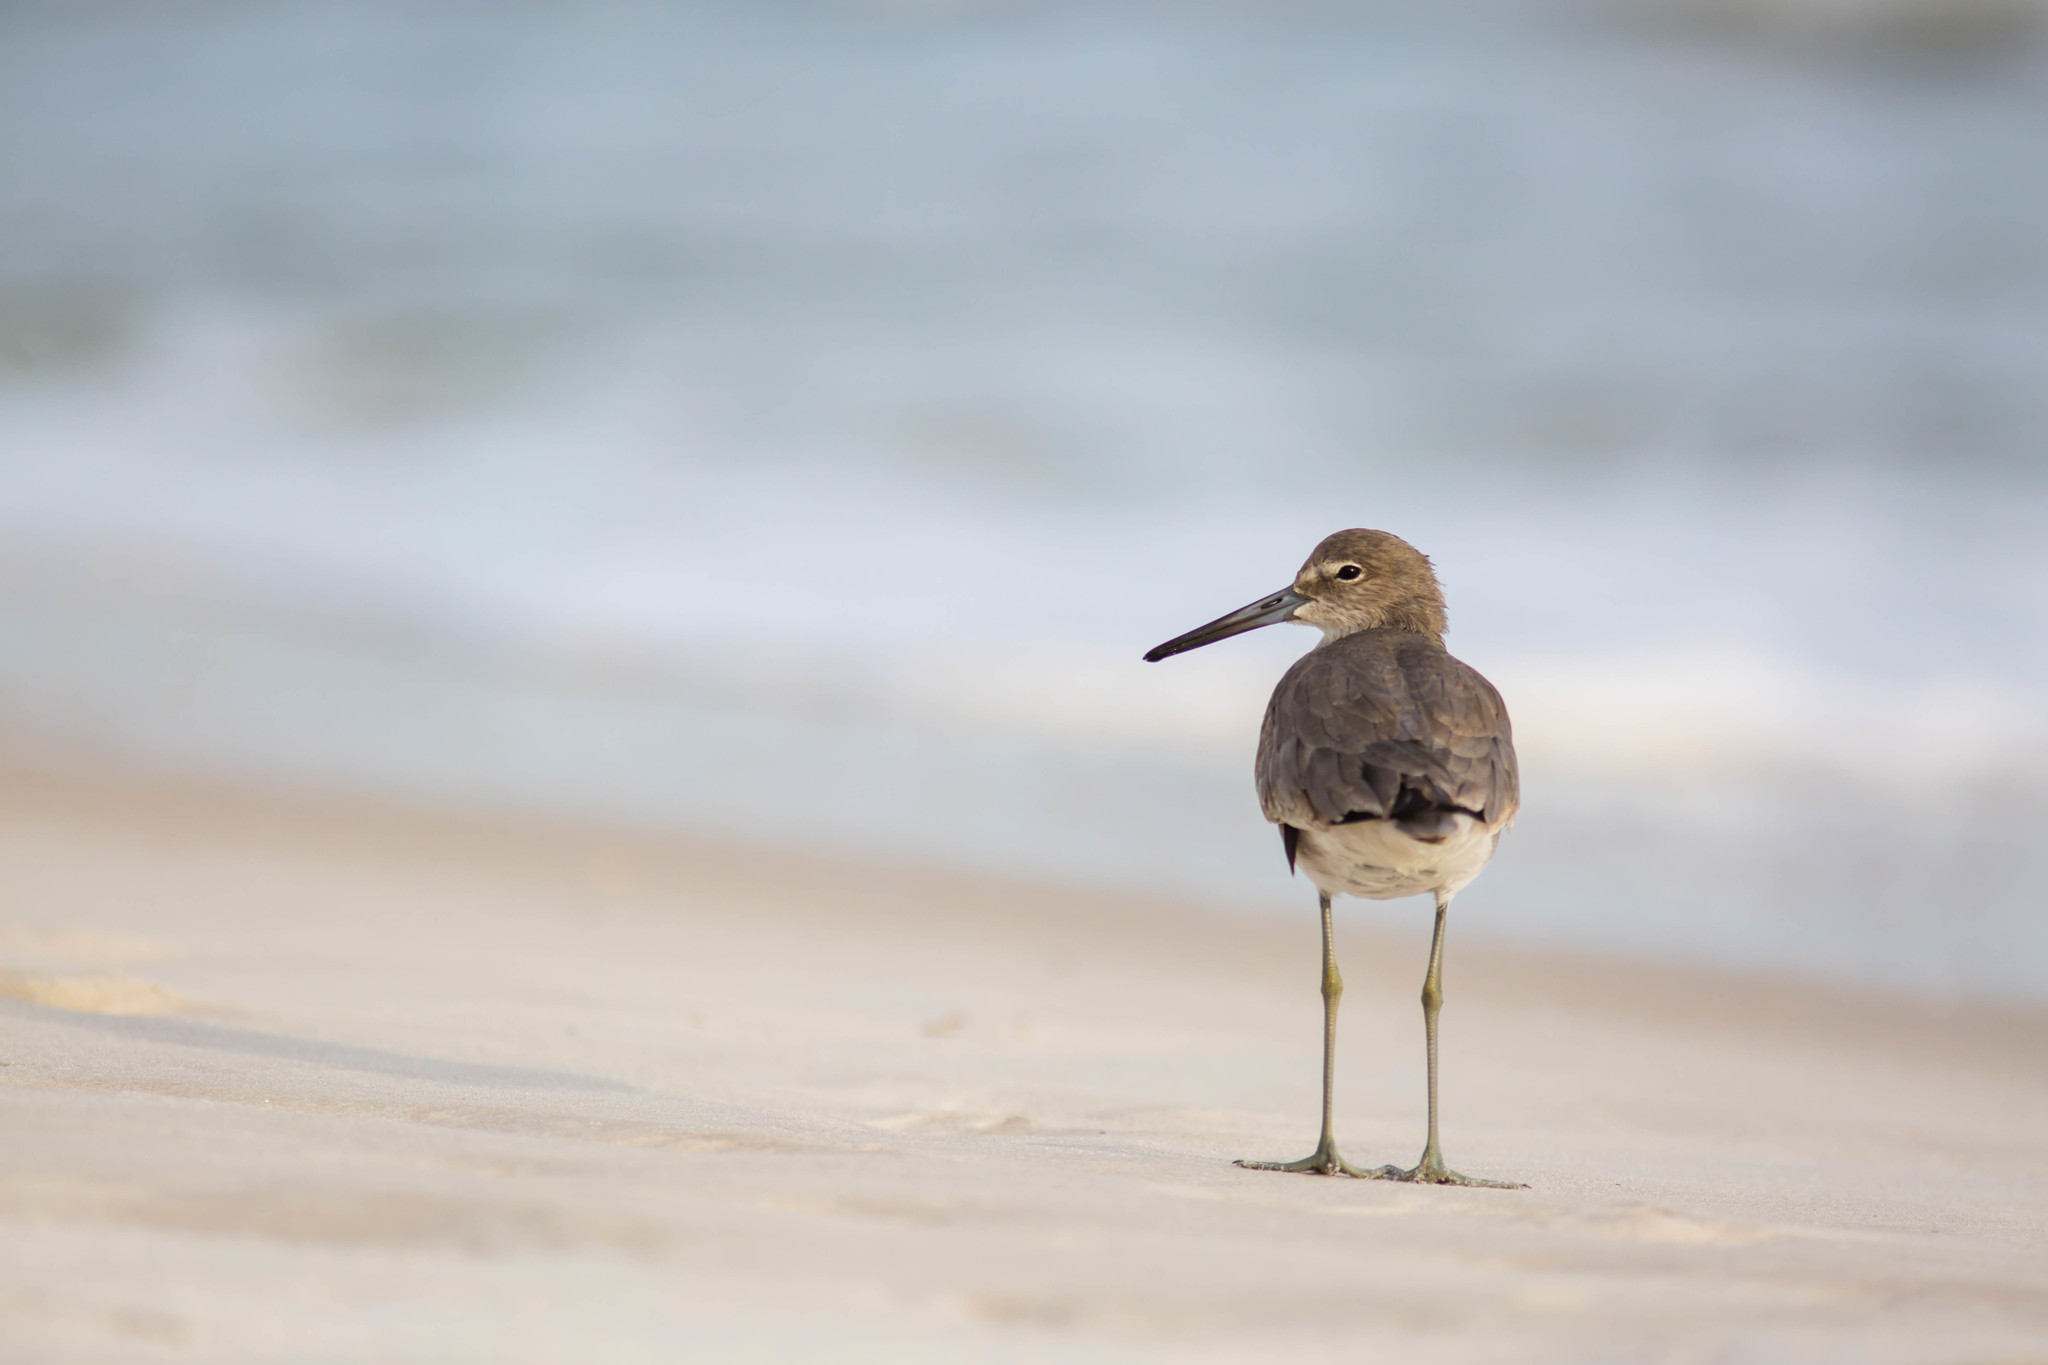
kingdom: Animalia
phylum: Chordata
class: Aves
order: Charadriiformes
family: Scolopacidae
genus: Tringa
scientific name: Tringa semipalmata
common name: Willet
